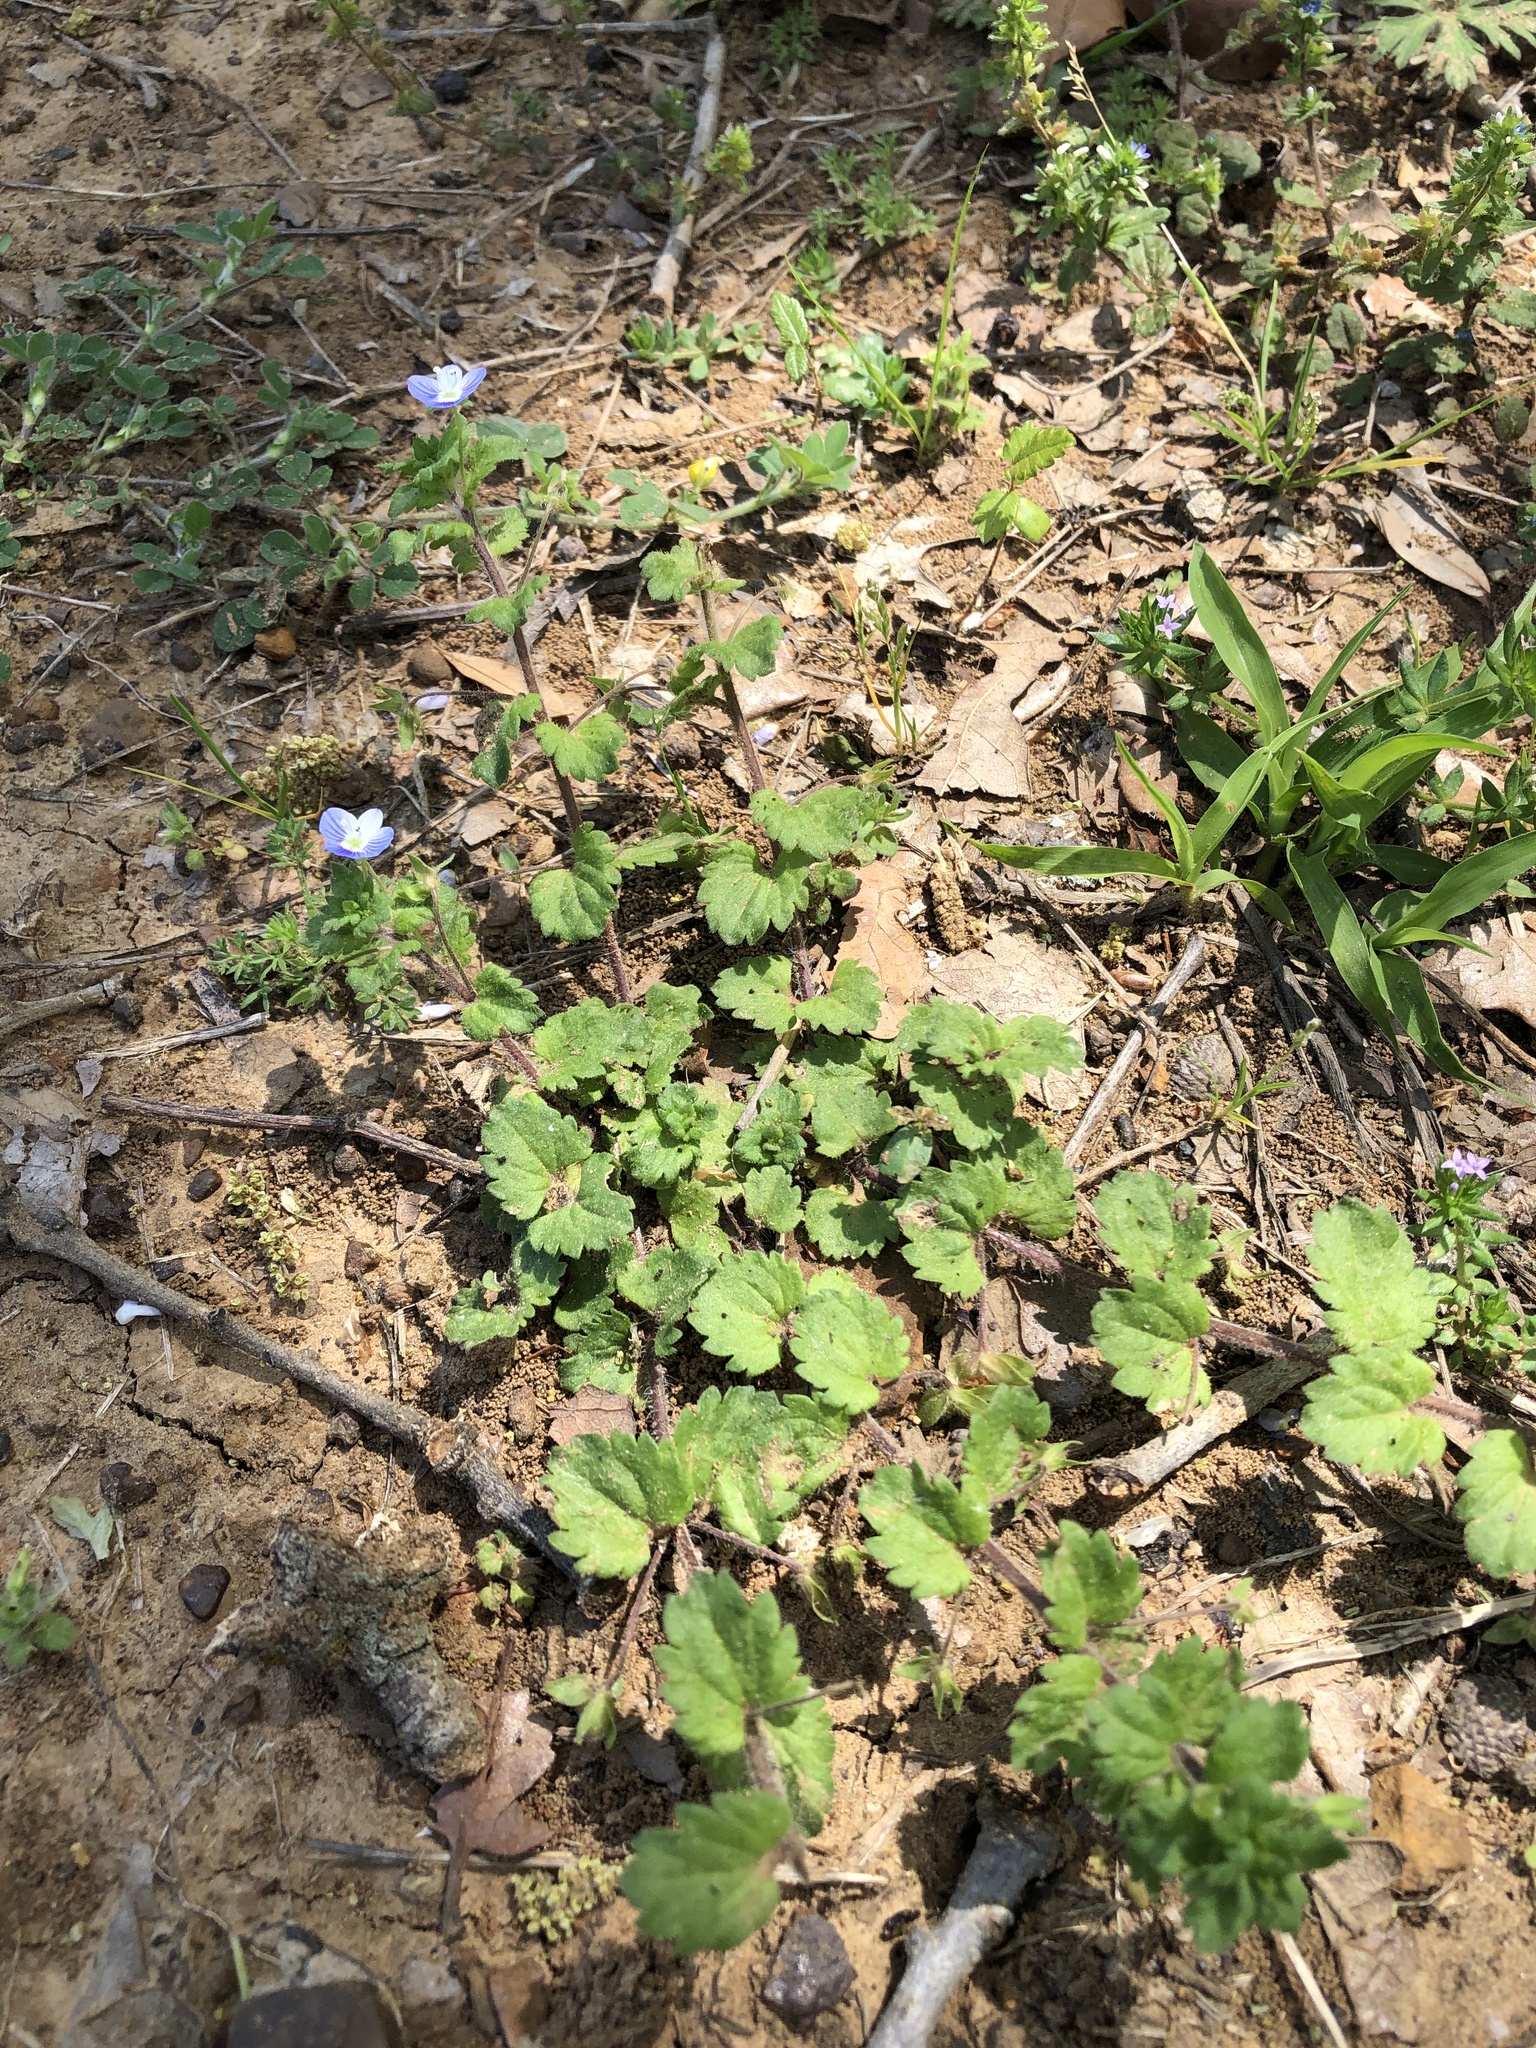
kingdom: Plantae
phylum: Tracheophyta
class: Magnoliopsida
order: Lamiales
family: Plantaginaceae
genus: Veronica
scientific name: Veronica persica
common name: Common field-speedwell
